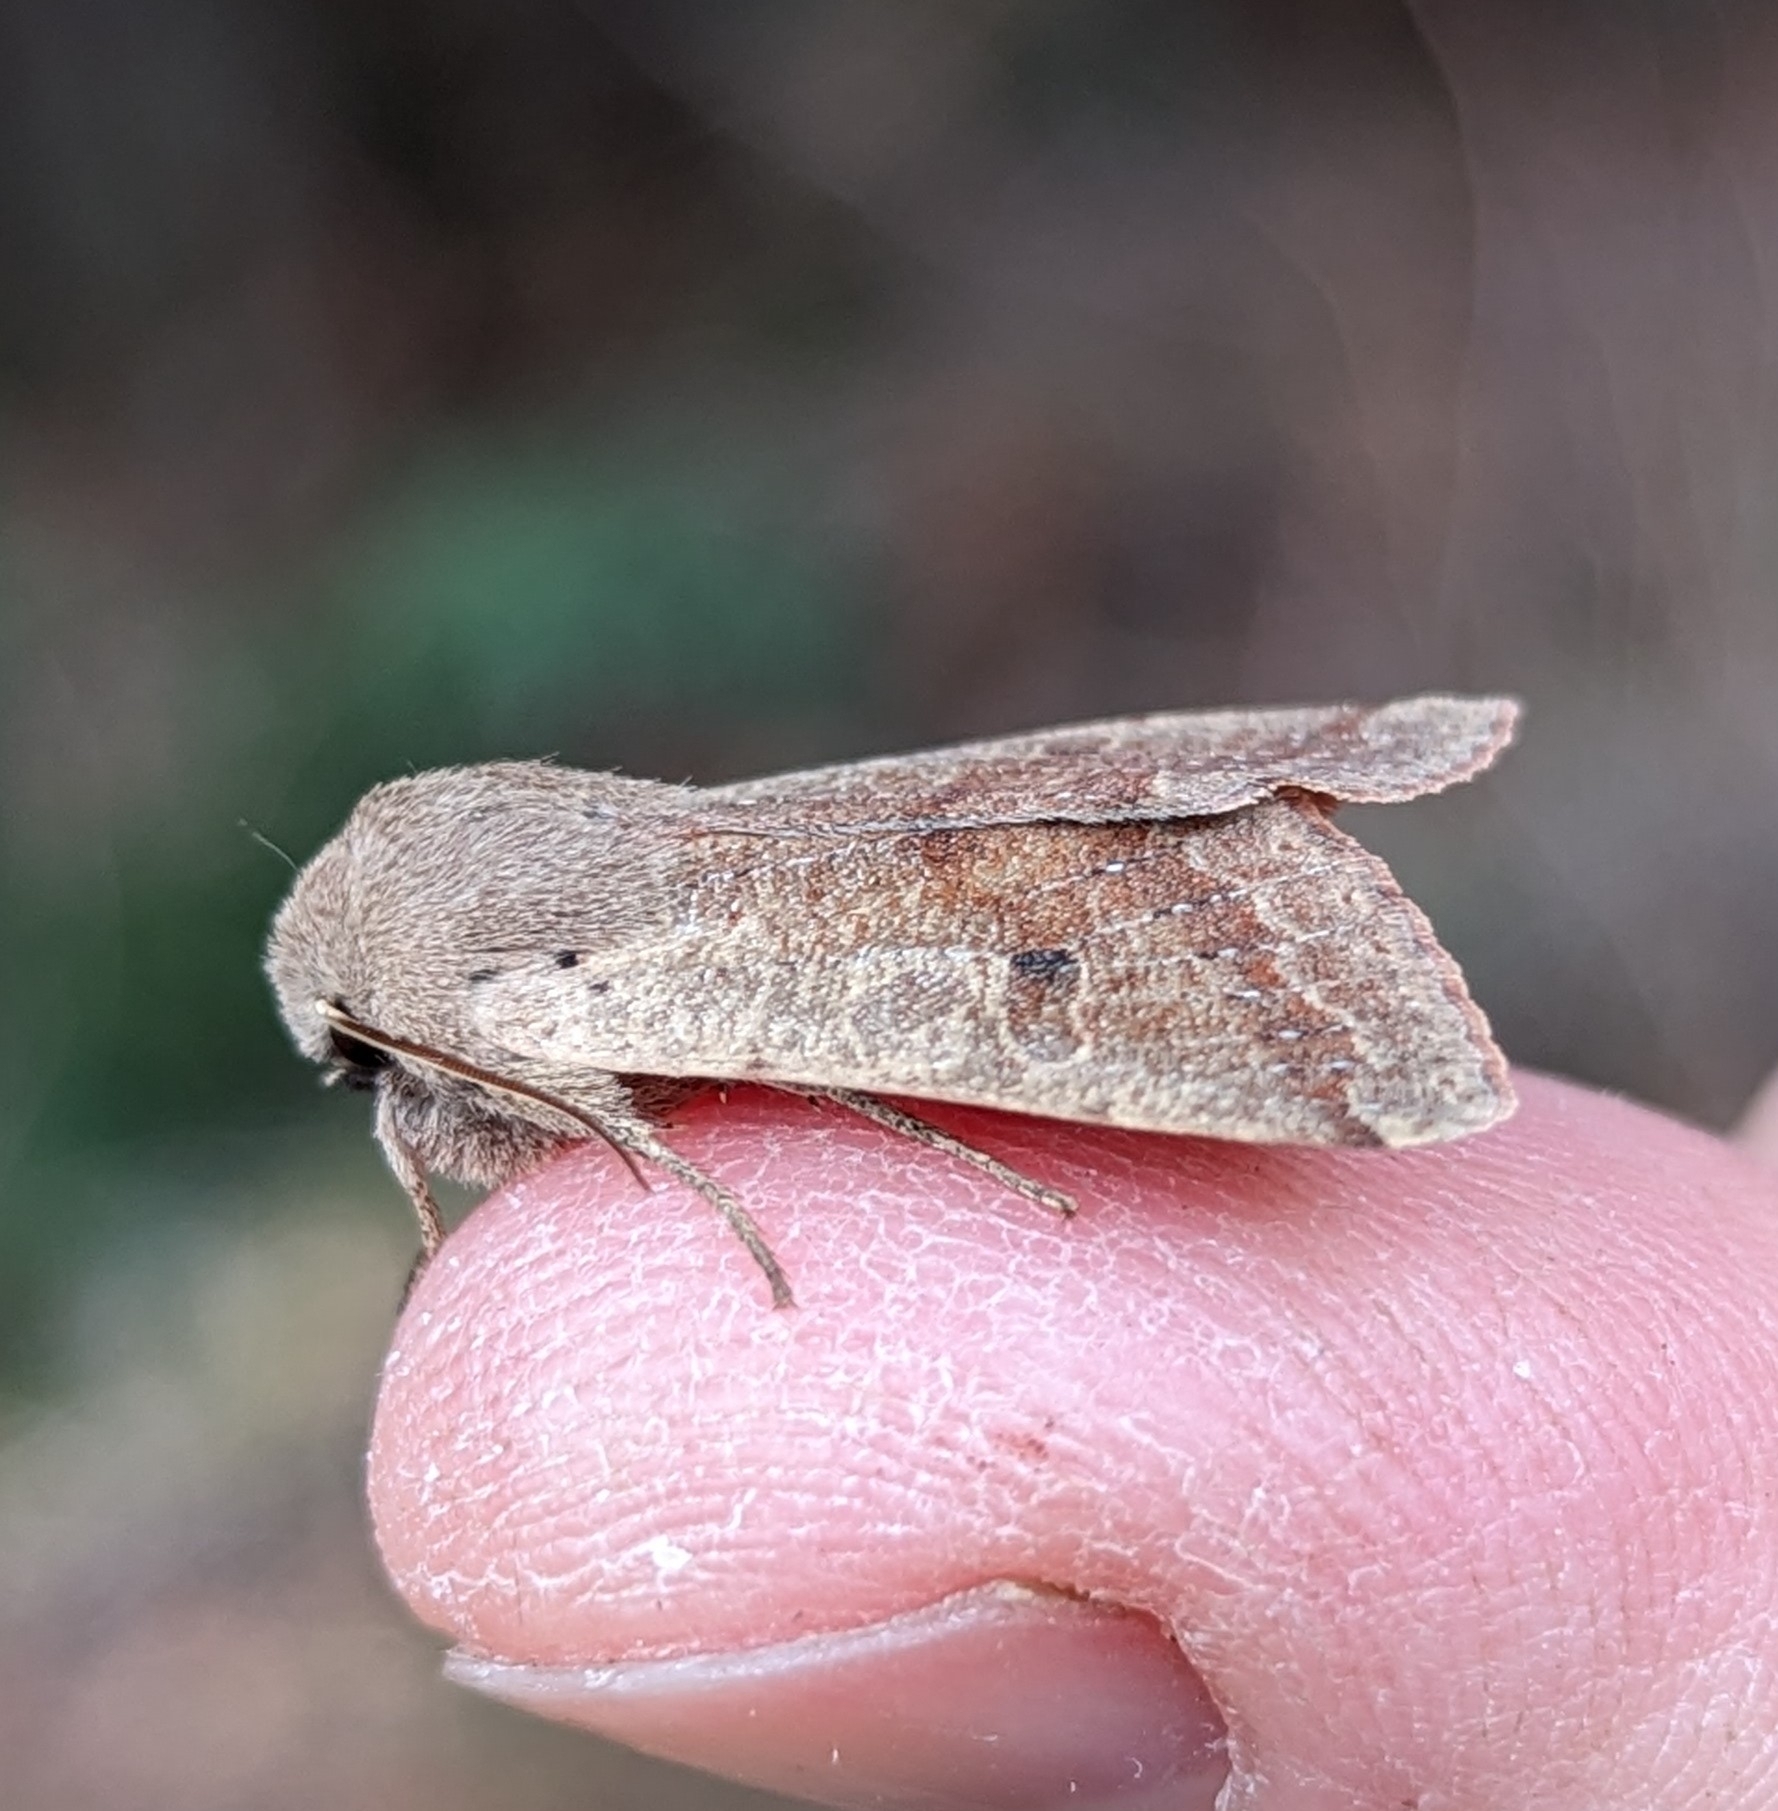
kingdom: Animalia
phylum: Arthropoda
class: Insecta
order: Lepidoptera
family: Noctuidae
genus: Orthosia
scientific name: Orthosia pacifica
